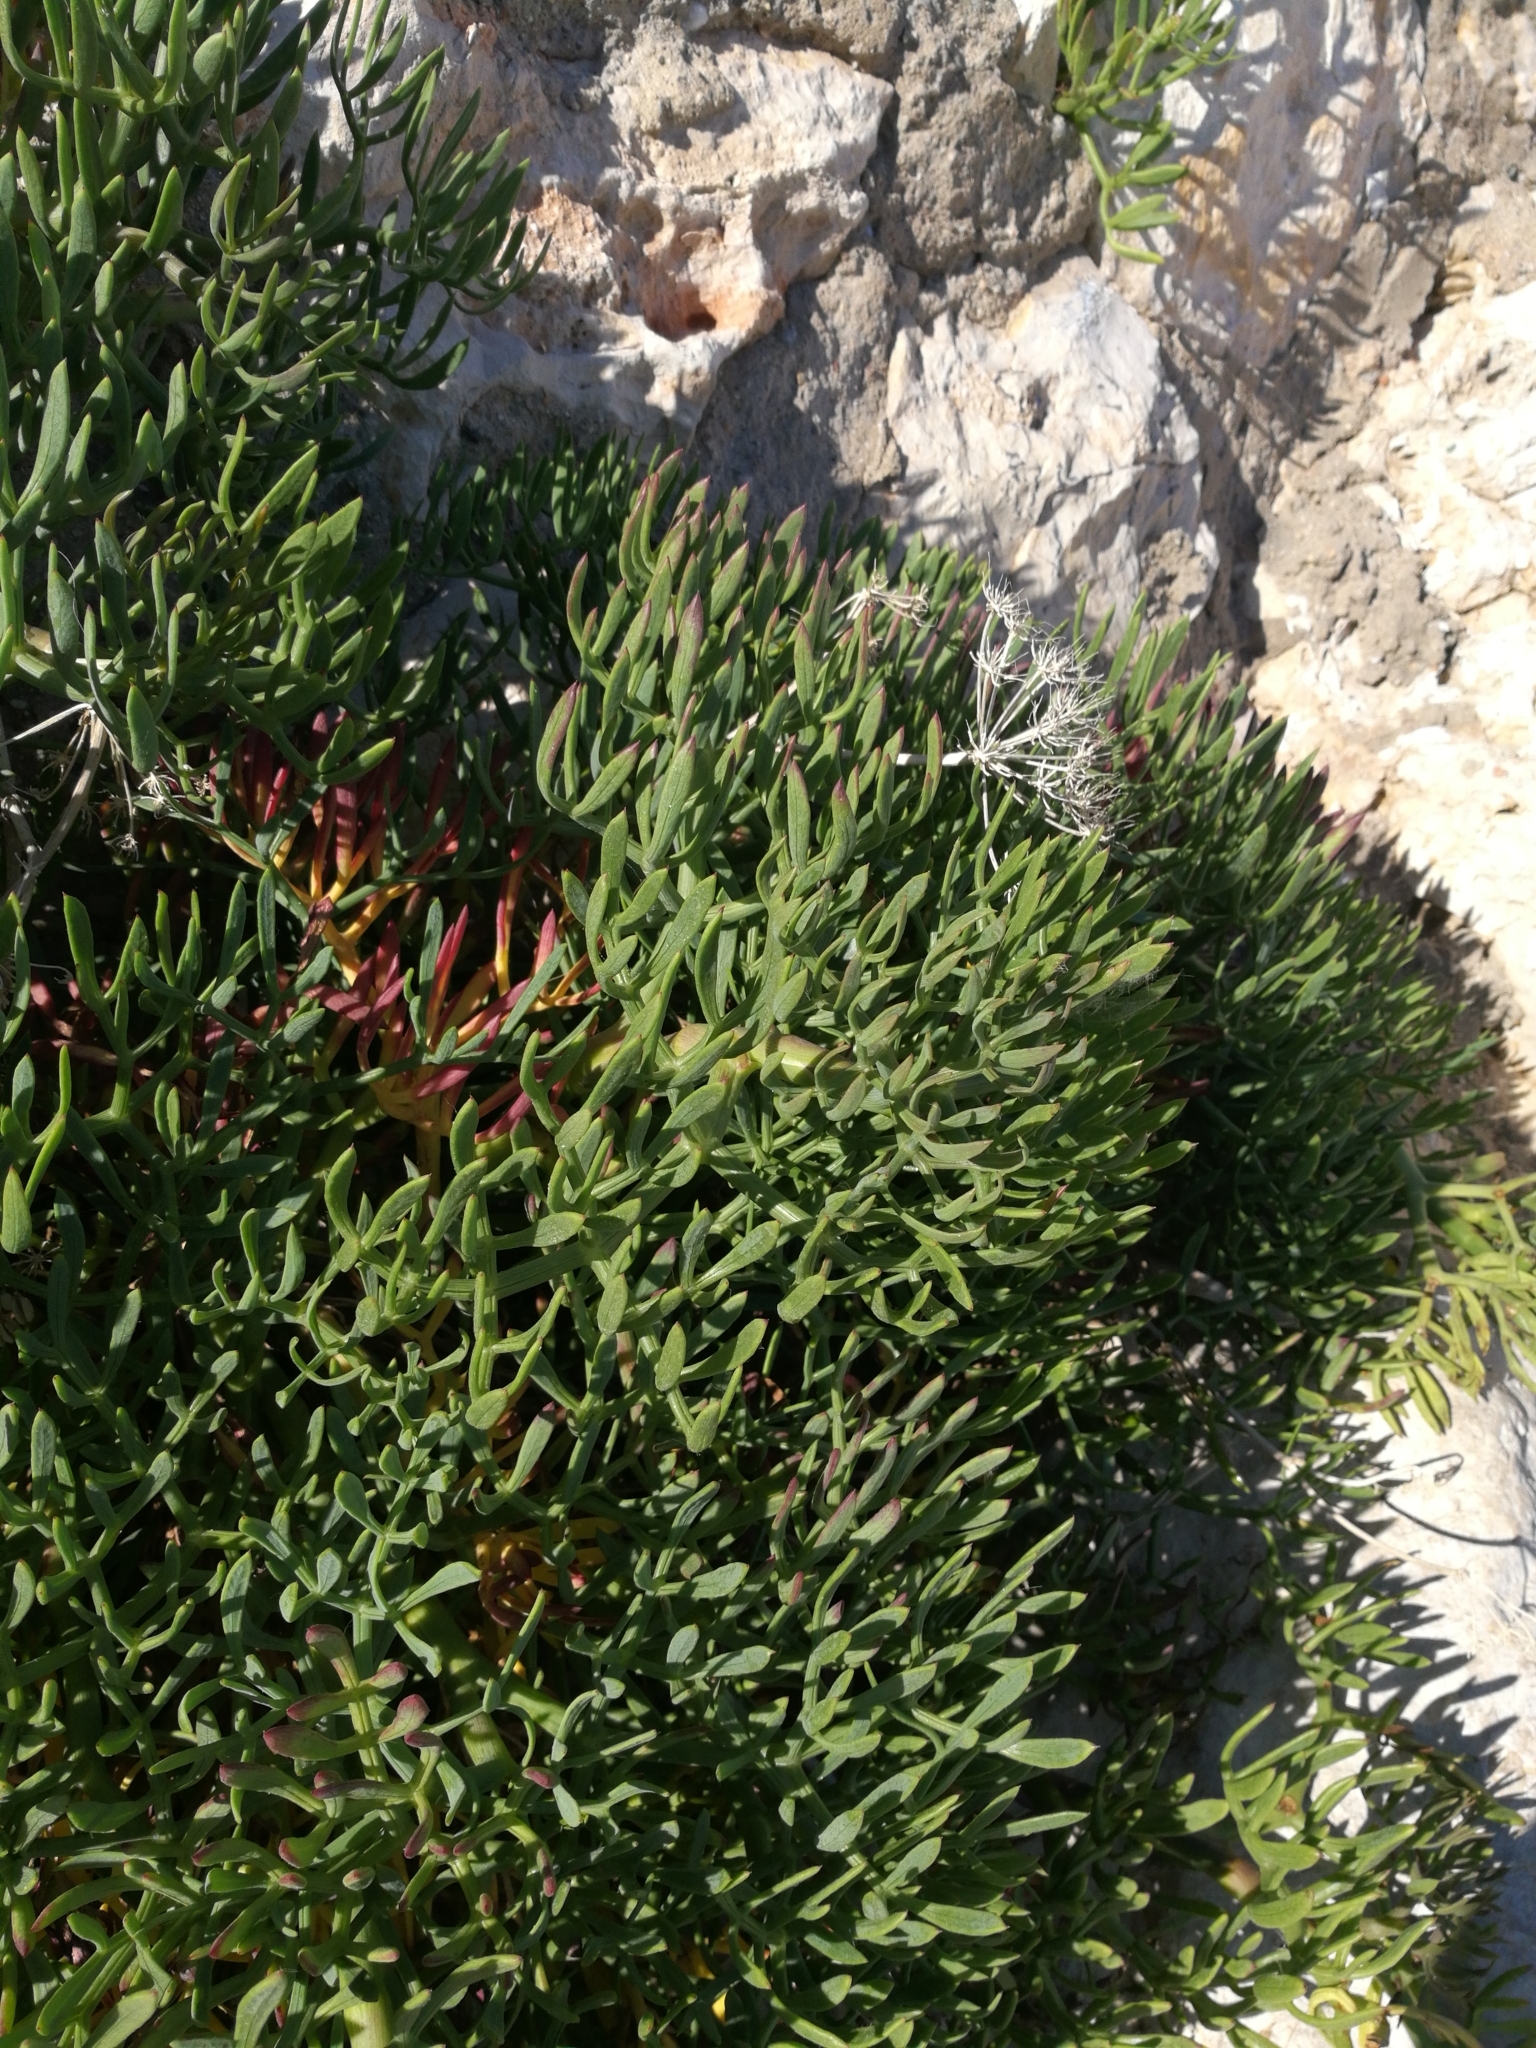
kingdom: Plantae
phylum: Tracheophyta
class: Magnoliopsida
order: Apiales
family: Apiaceae
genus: Crithmum
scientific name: Crithmum maritimum
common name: Rock samphire
